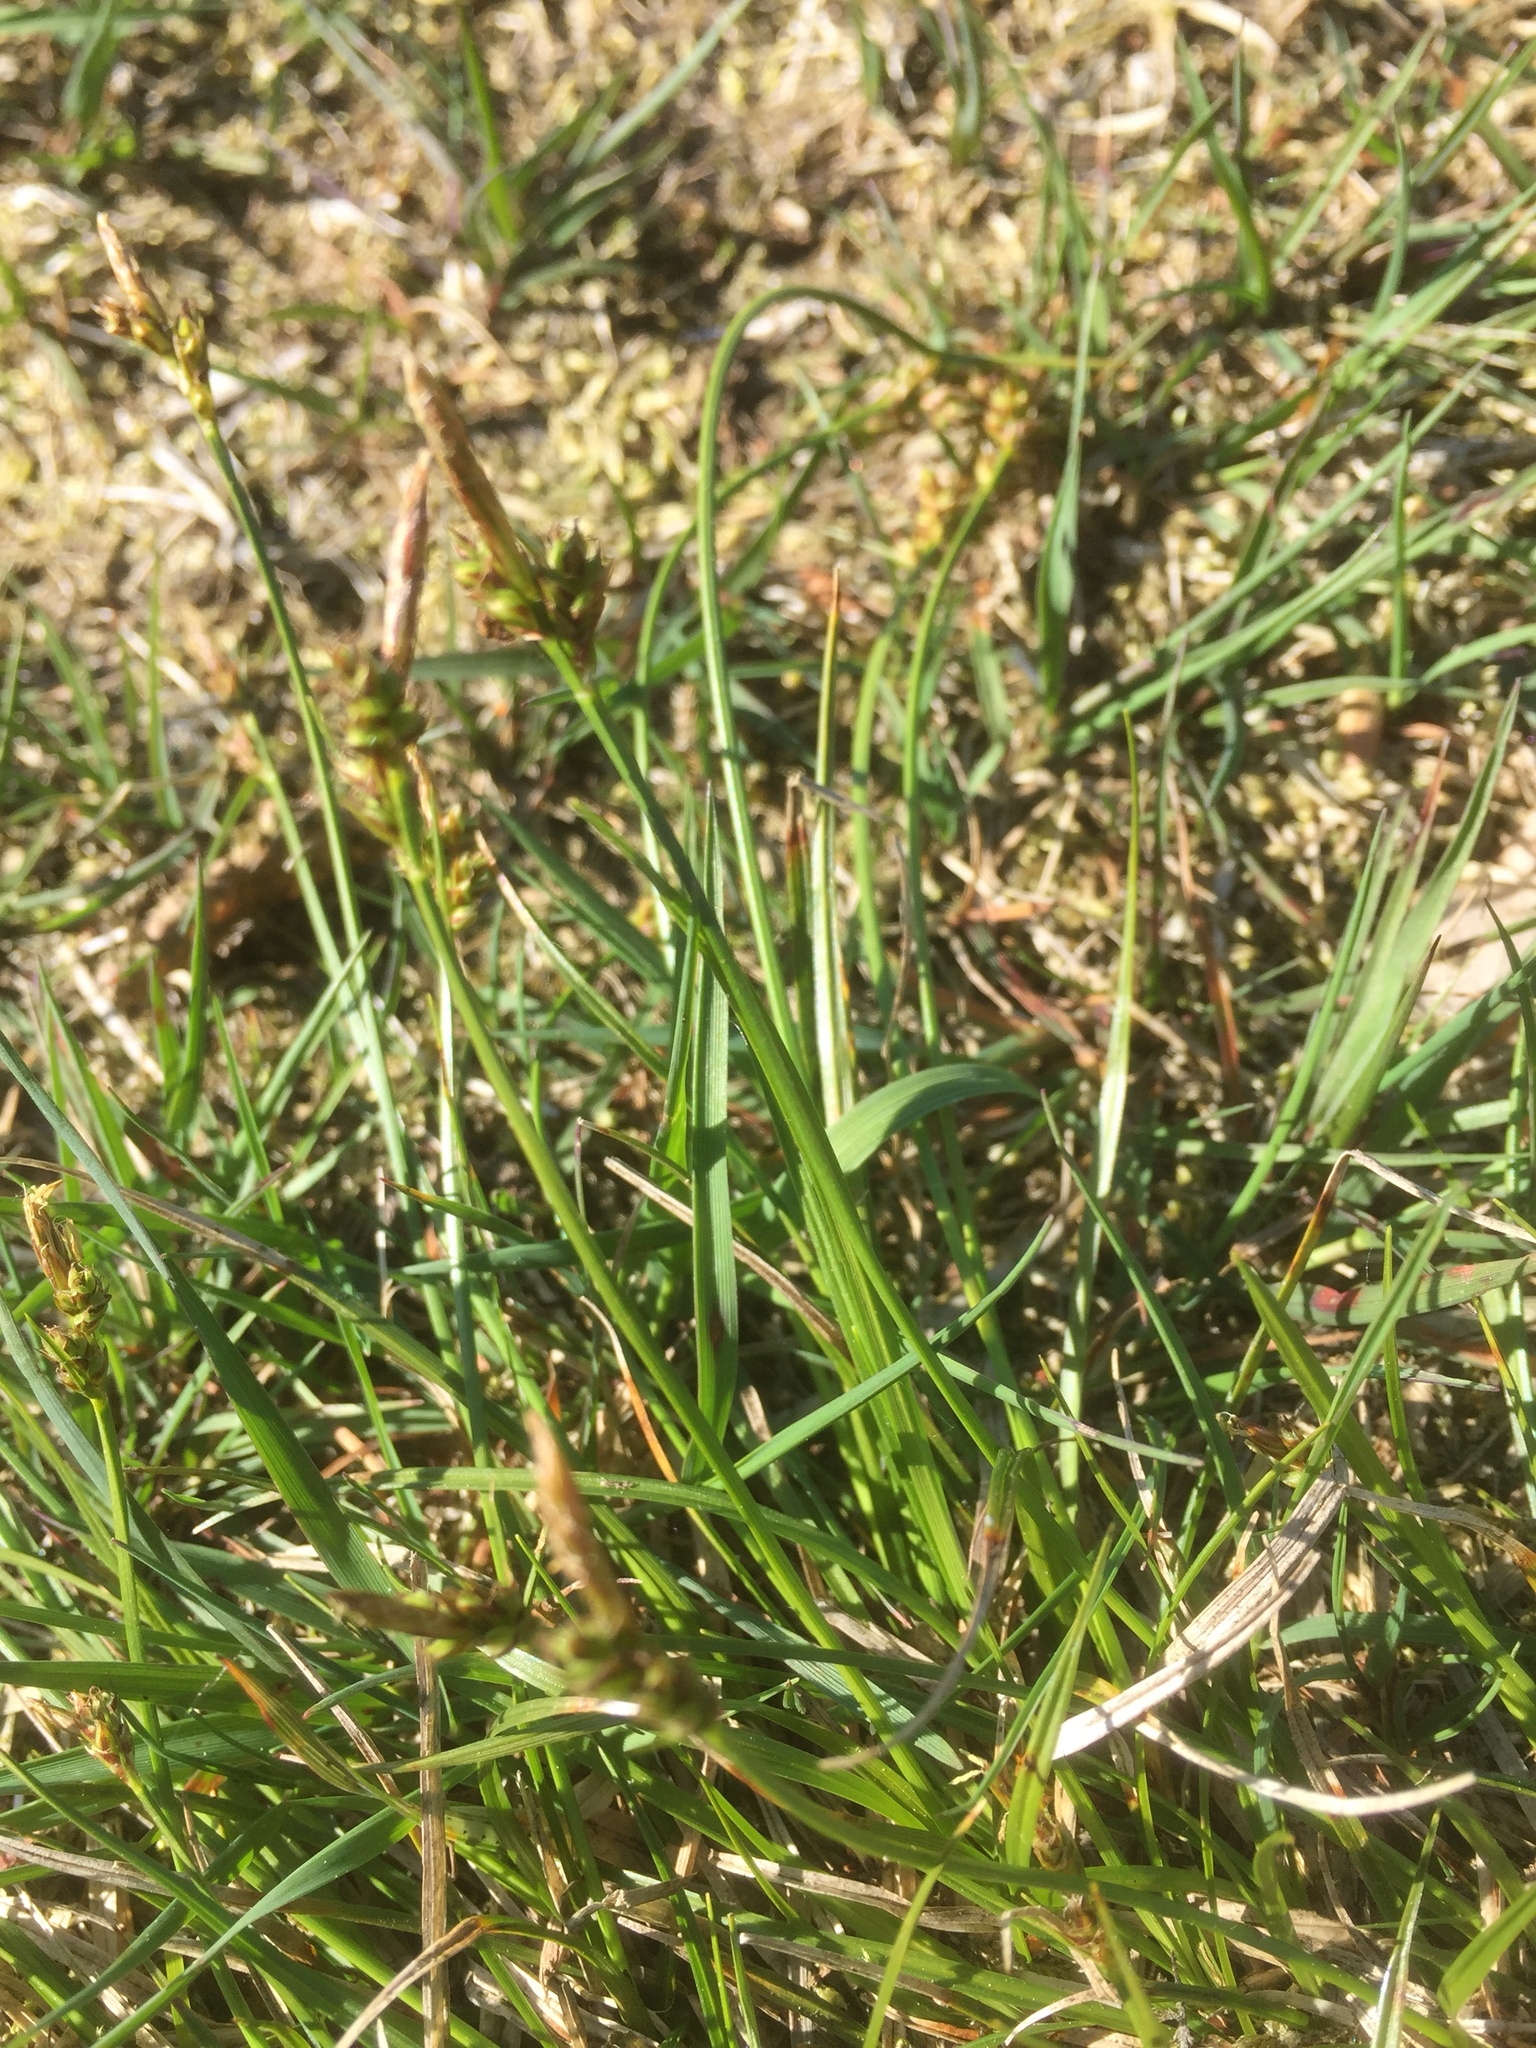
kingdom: Plantae
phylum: Tracheophyta
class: Liliopsida
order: Poales
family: Cyperaceae
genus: Carex
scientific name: Carex pilulifera
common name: Pill sedge
